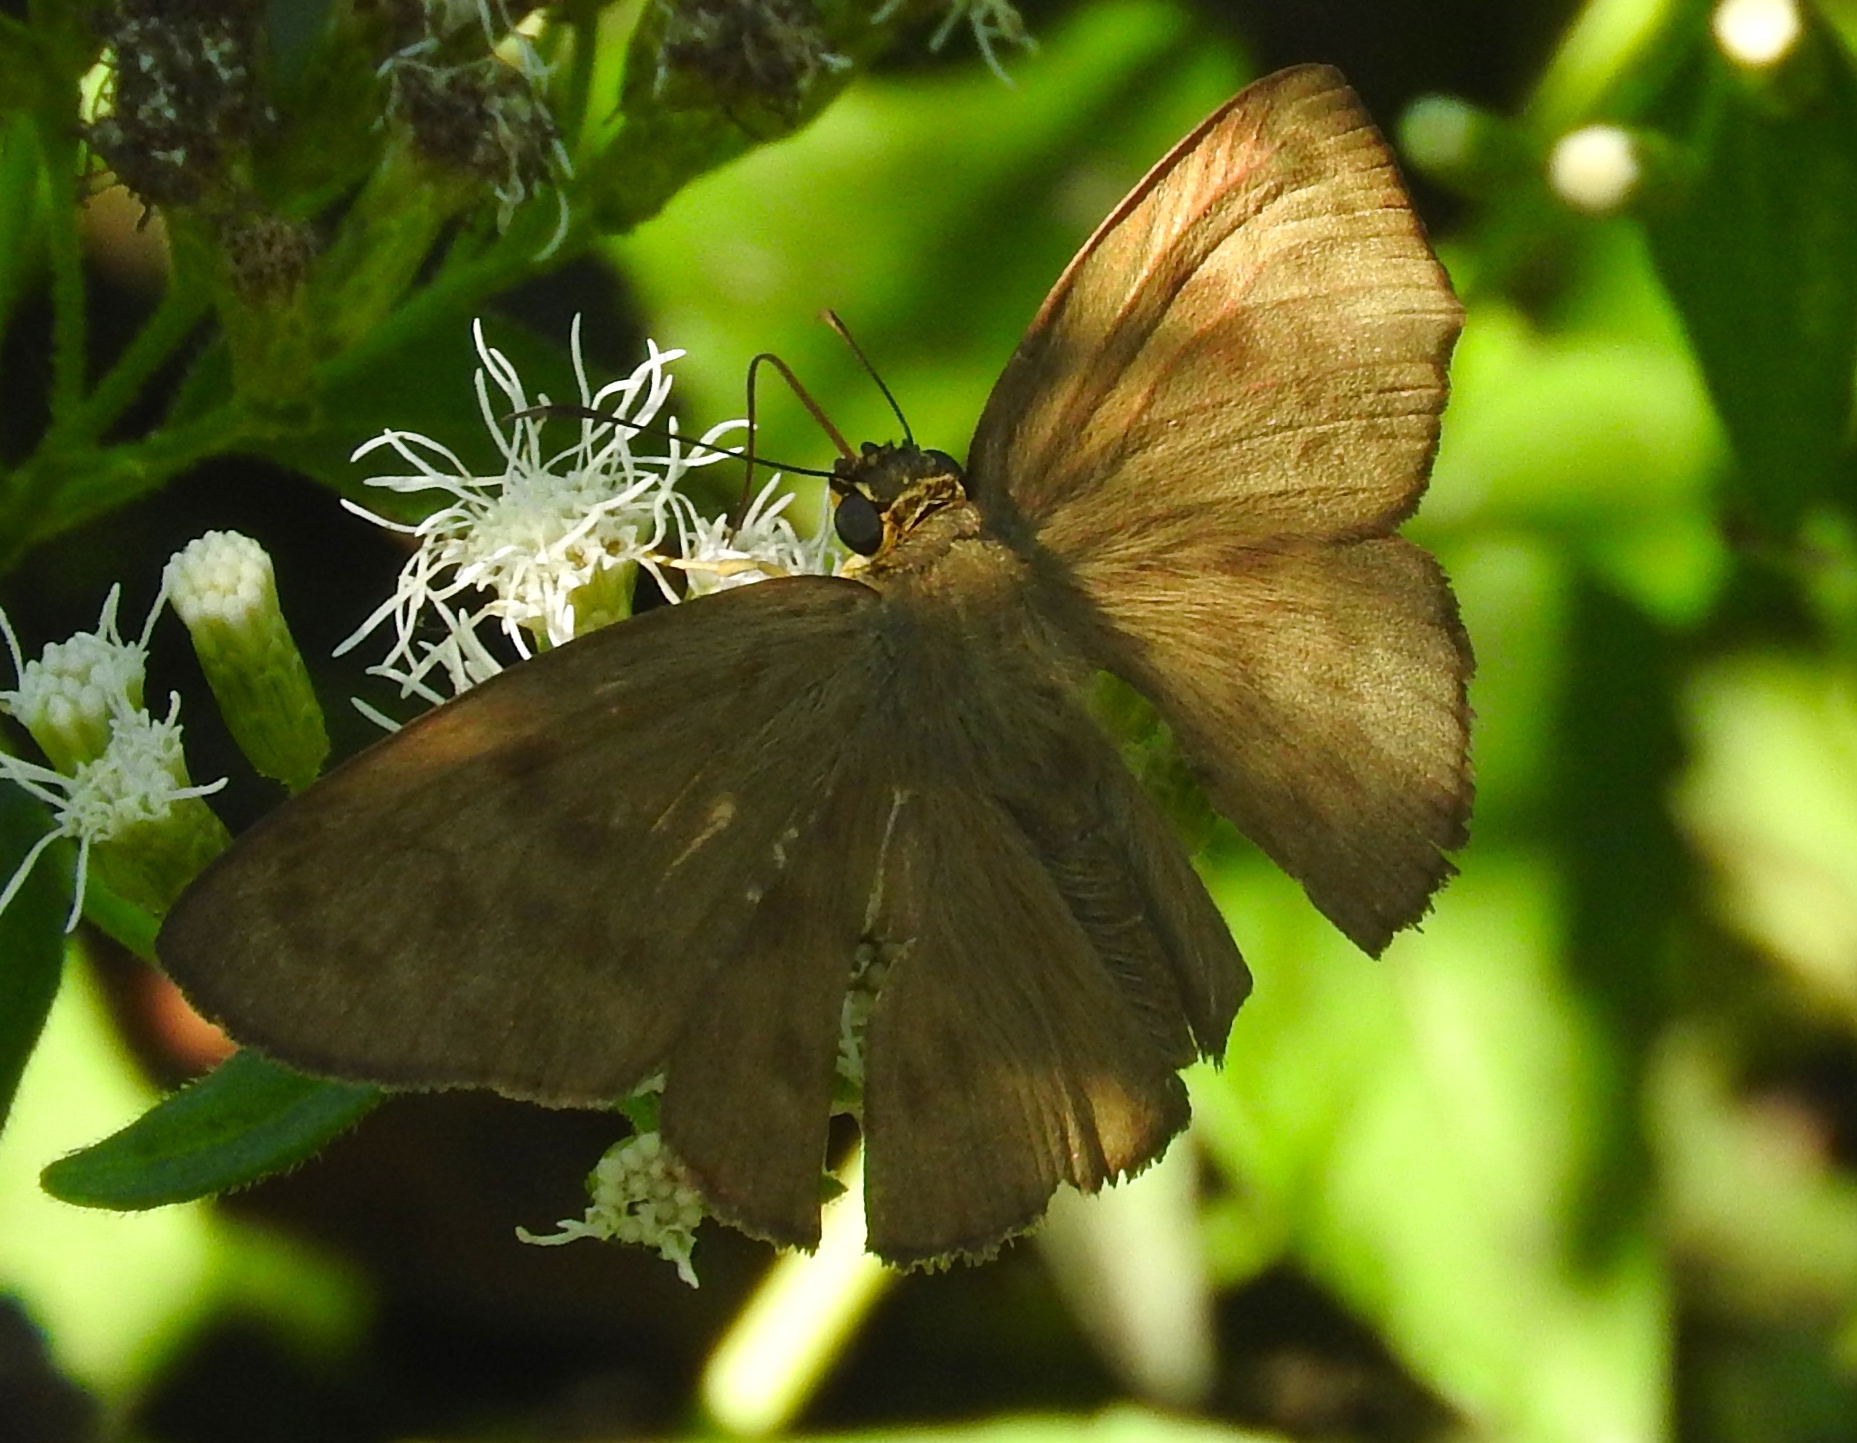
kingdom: Animalia
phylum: Arthropoda
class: Insecta
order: Lepidoptera
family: Hesperiidae
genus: Achlyodes
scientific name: Achlyodes pallida
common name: Pale sicklewing
